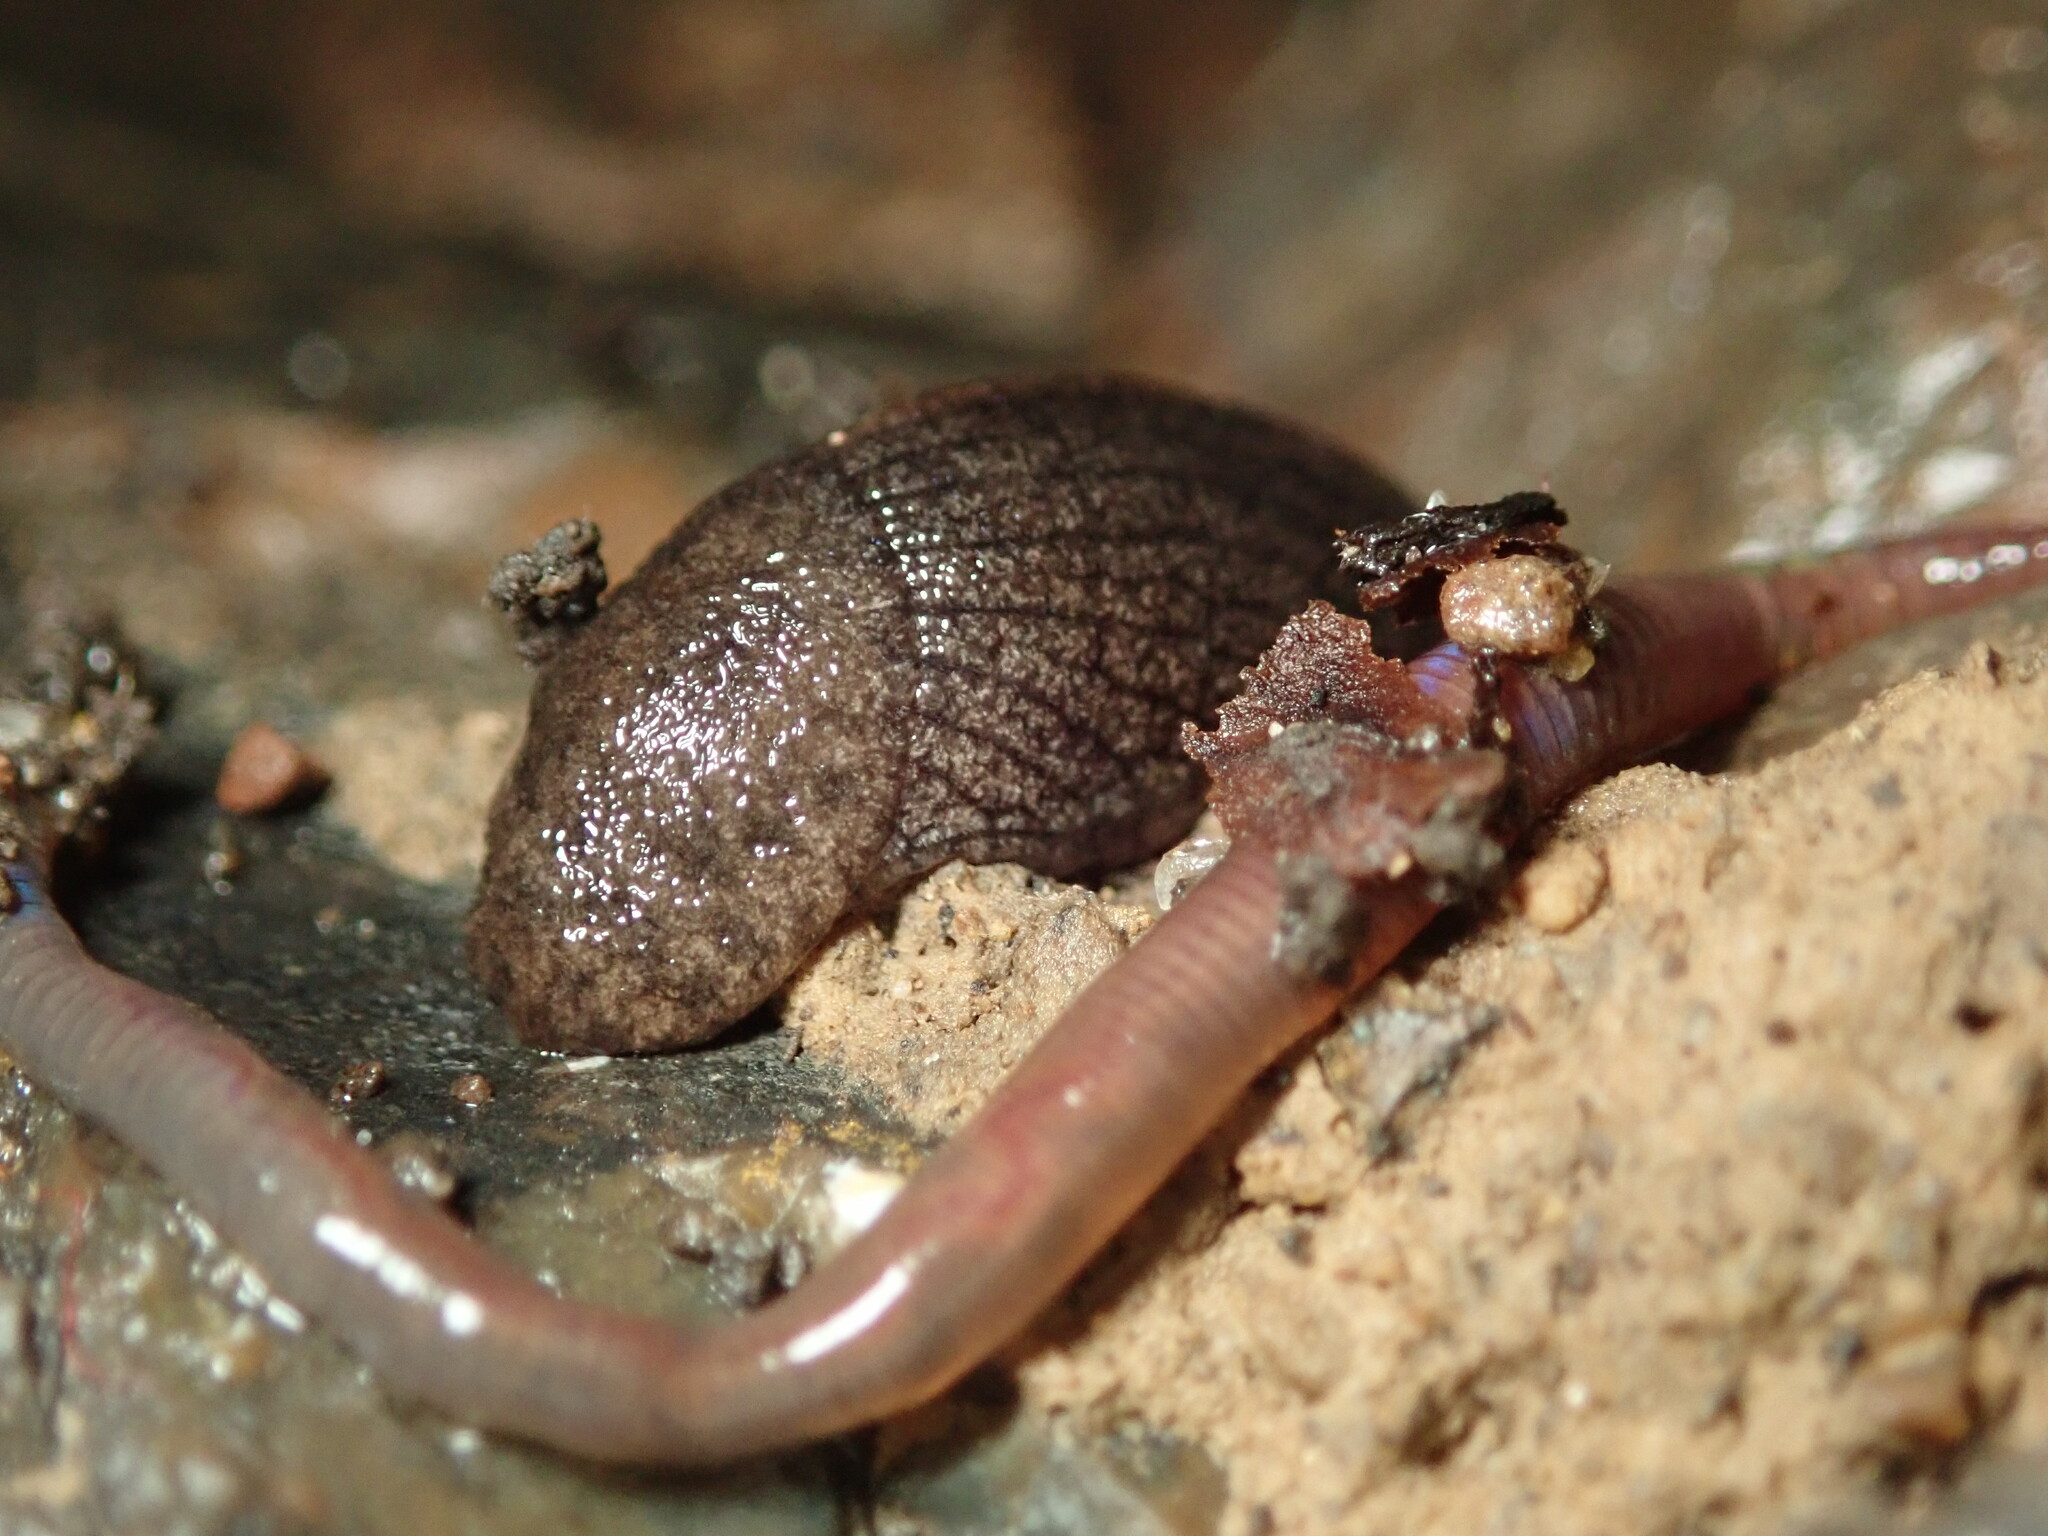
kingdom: Animalia
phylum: Mollusca
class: Gastropoda
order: Stylommatophora
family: Ariolimacidae
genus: Hesperarion
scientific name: Hesperarion niger
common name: Black western slug
